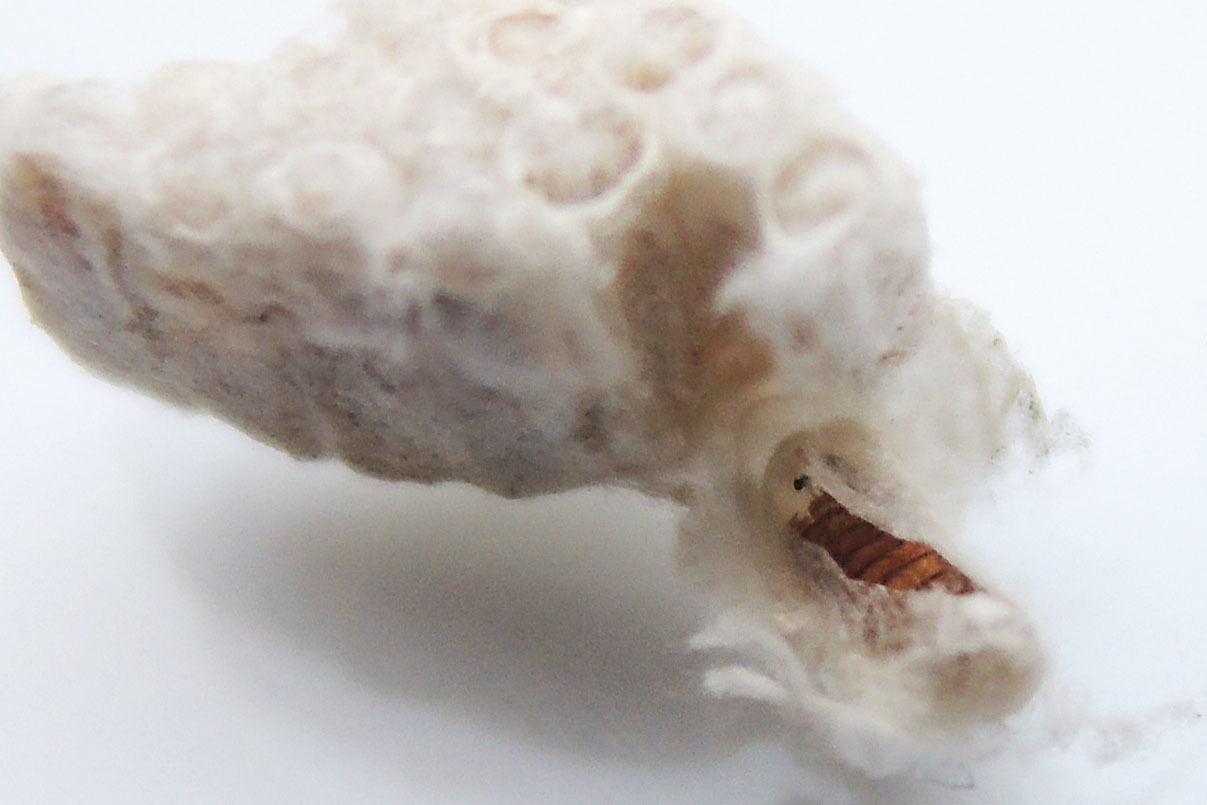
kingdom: Animalia
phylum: Arthropoda
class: Insecta
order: Hymenoptera
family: Braconidae
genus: Cotesia
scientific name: Cotesia
